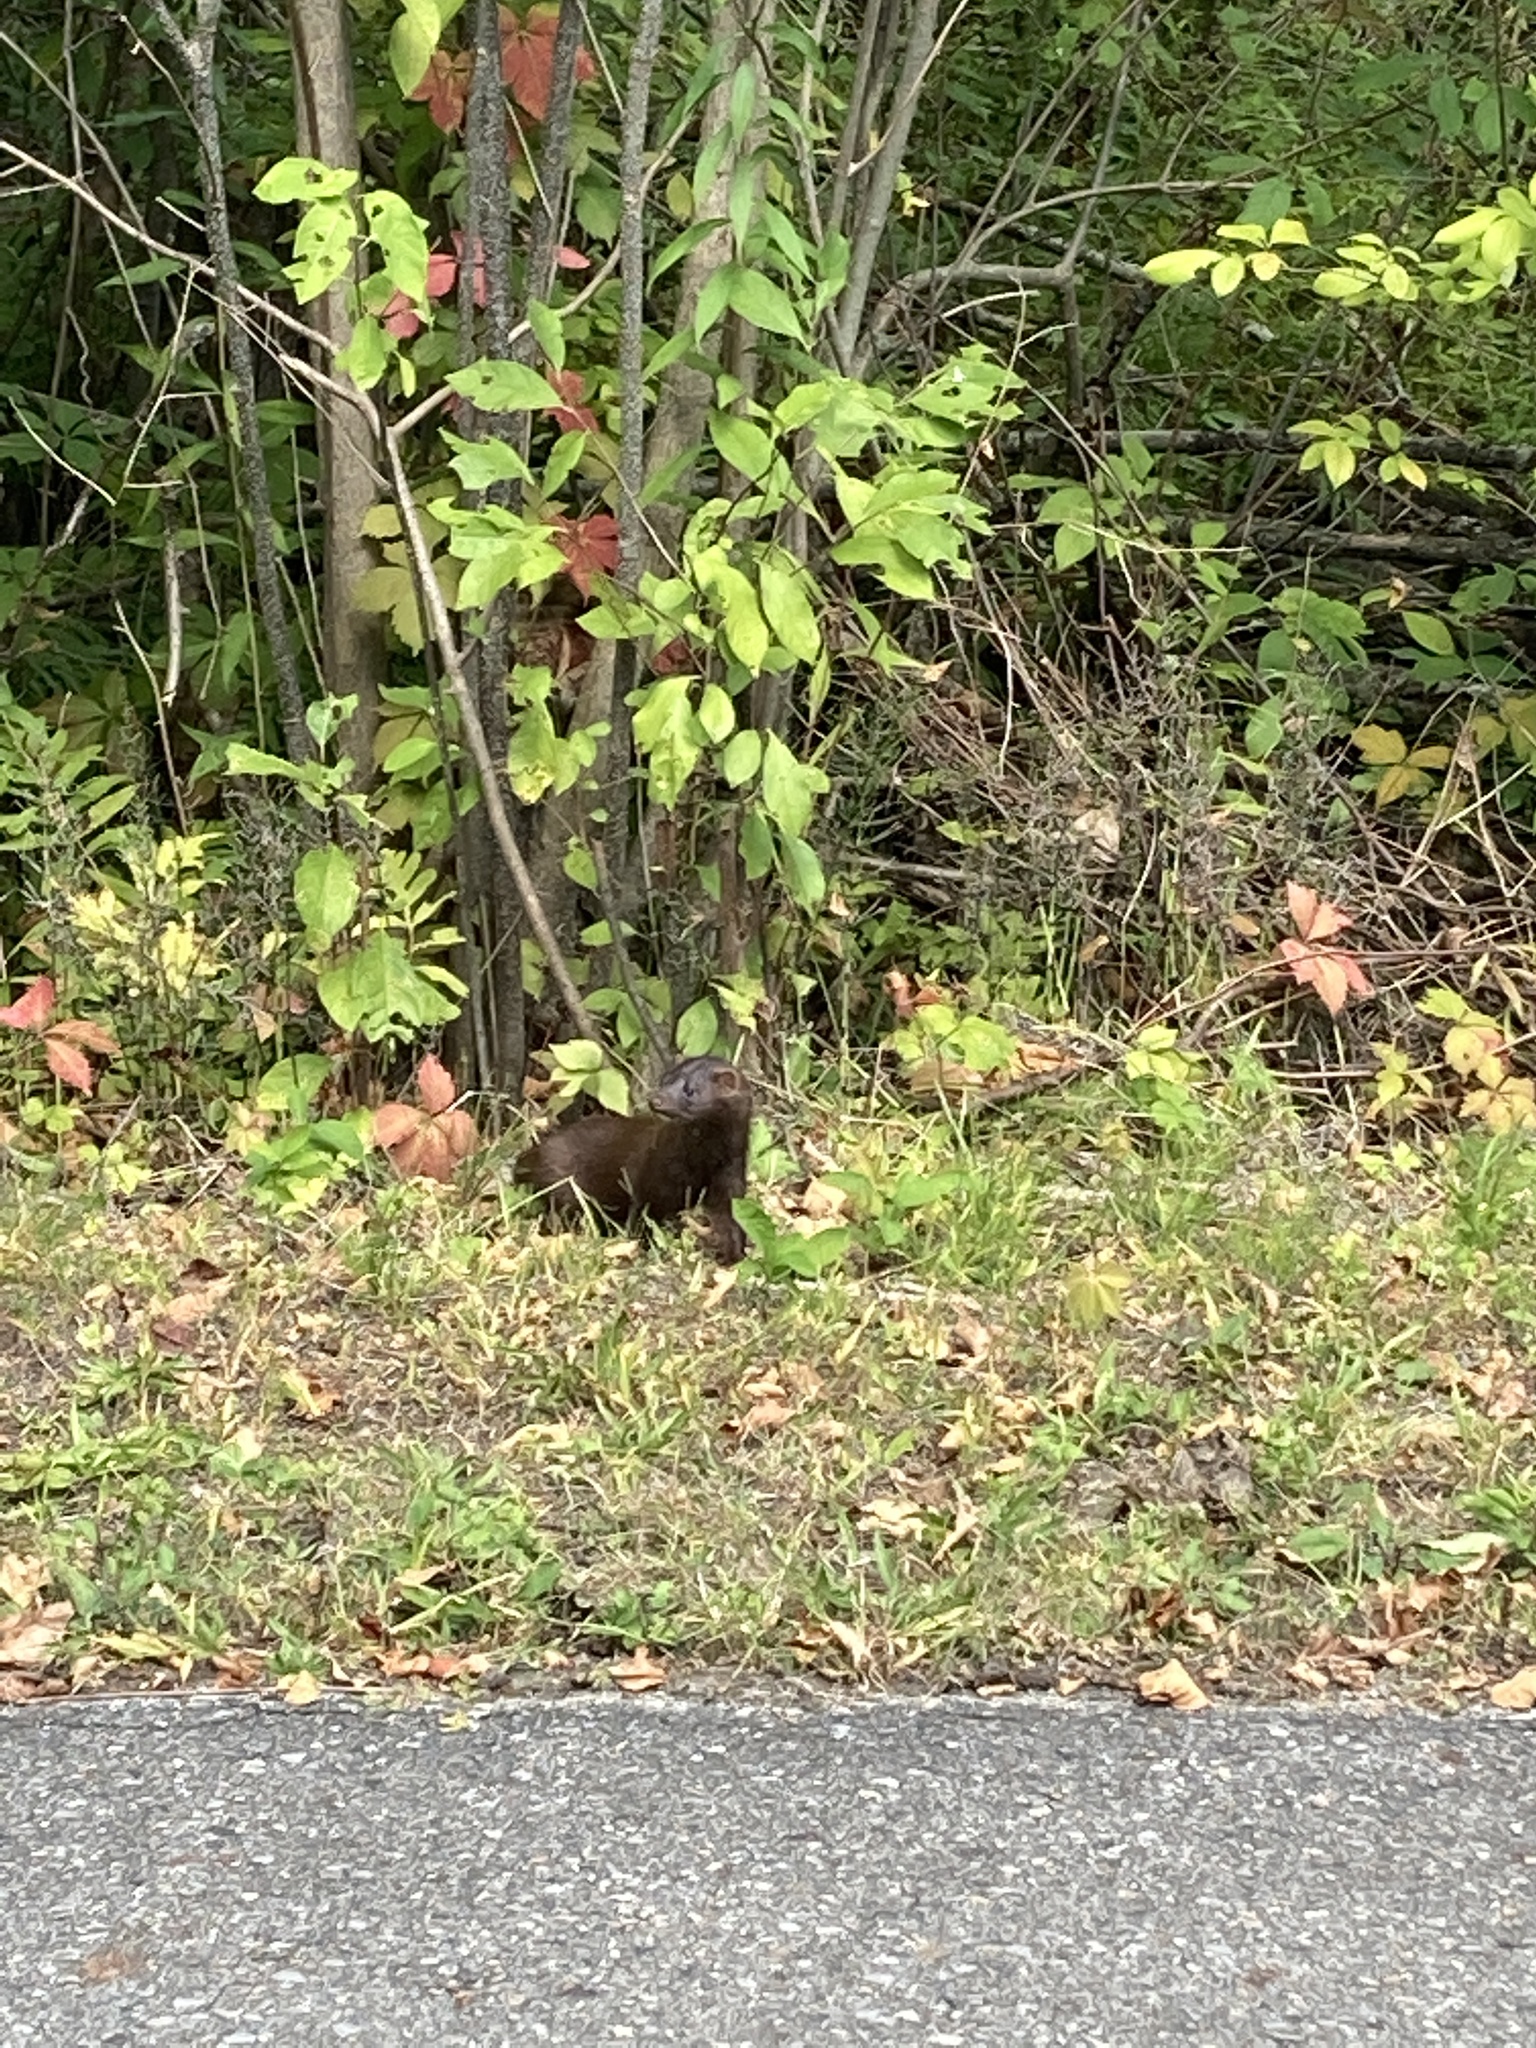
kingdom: Animalia
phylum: Chordata
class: Mammalia
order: Carnivora
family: Mustelidae
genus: Mustela
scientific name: Mustela
